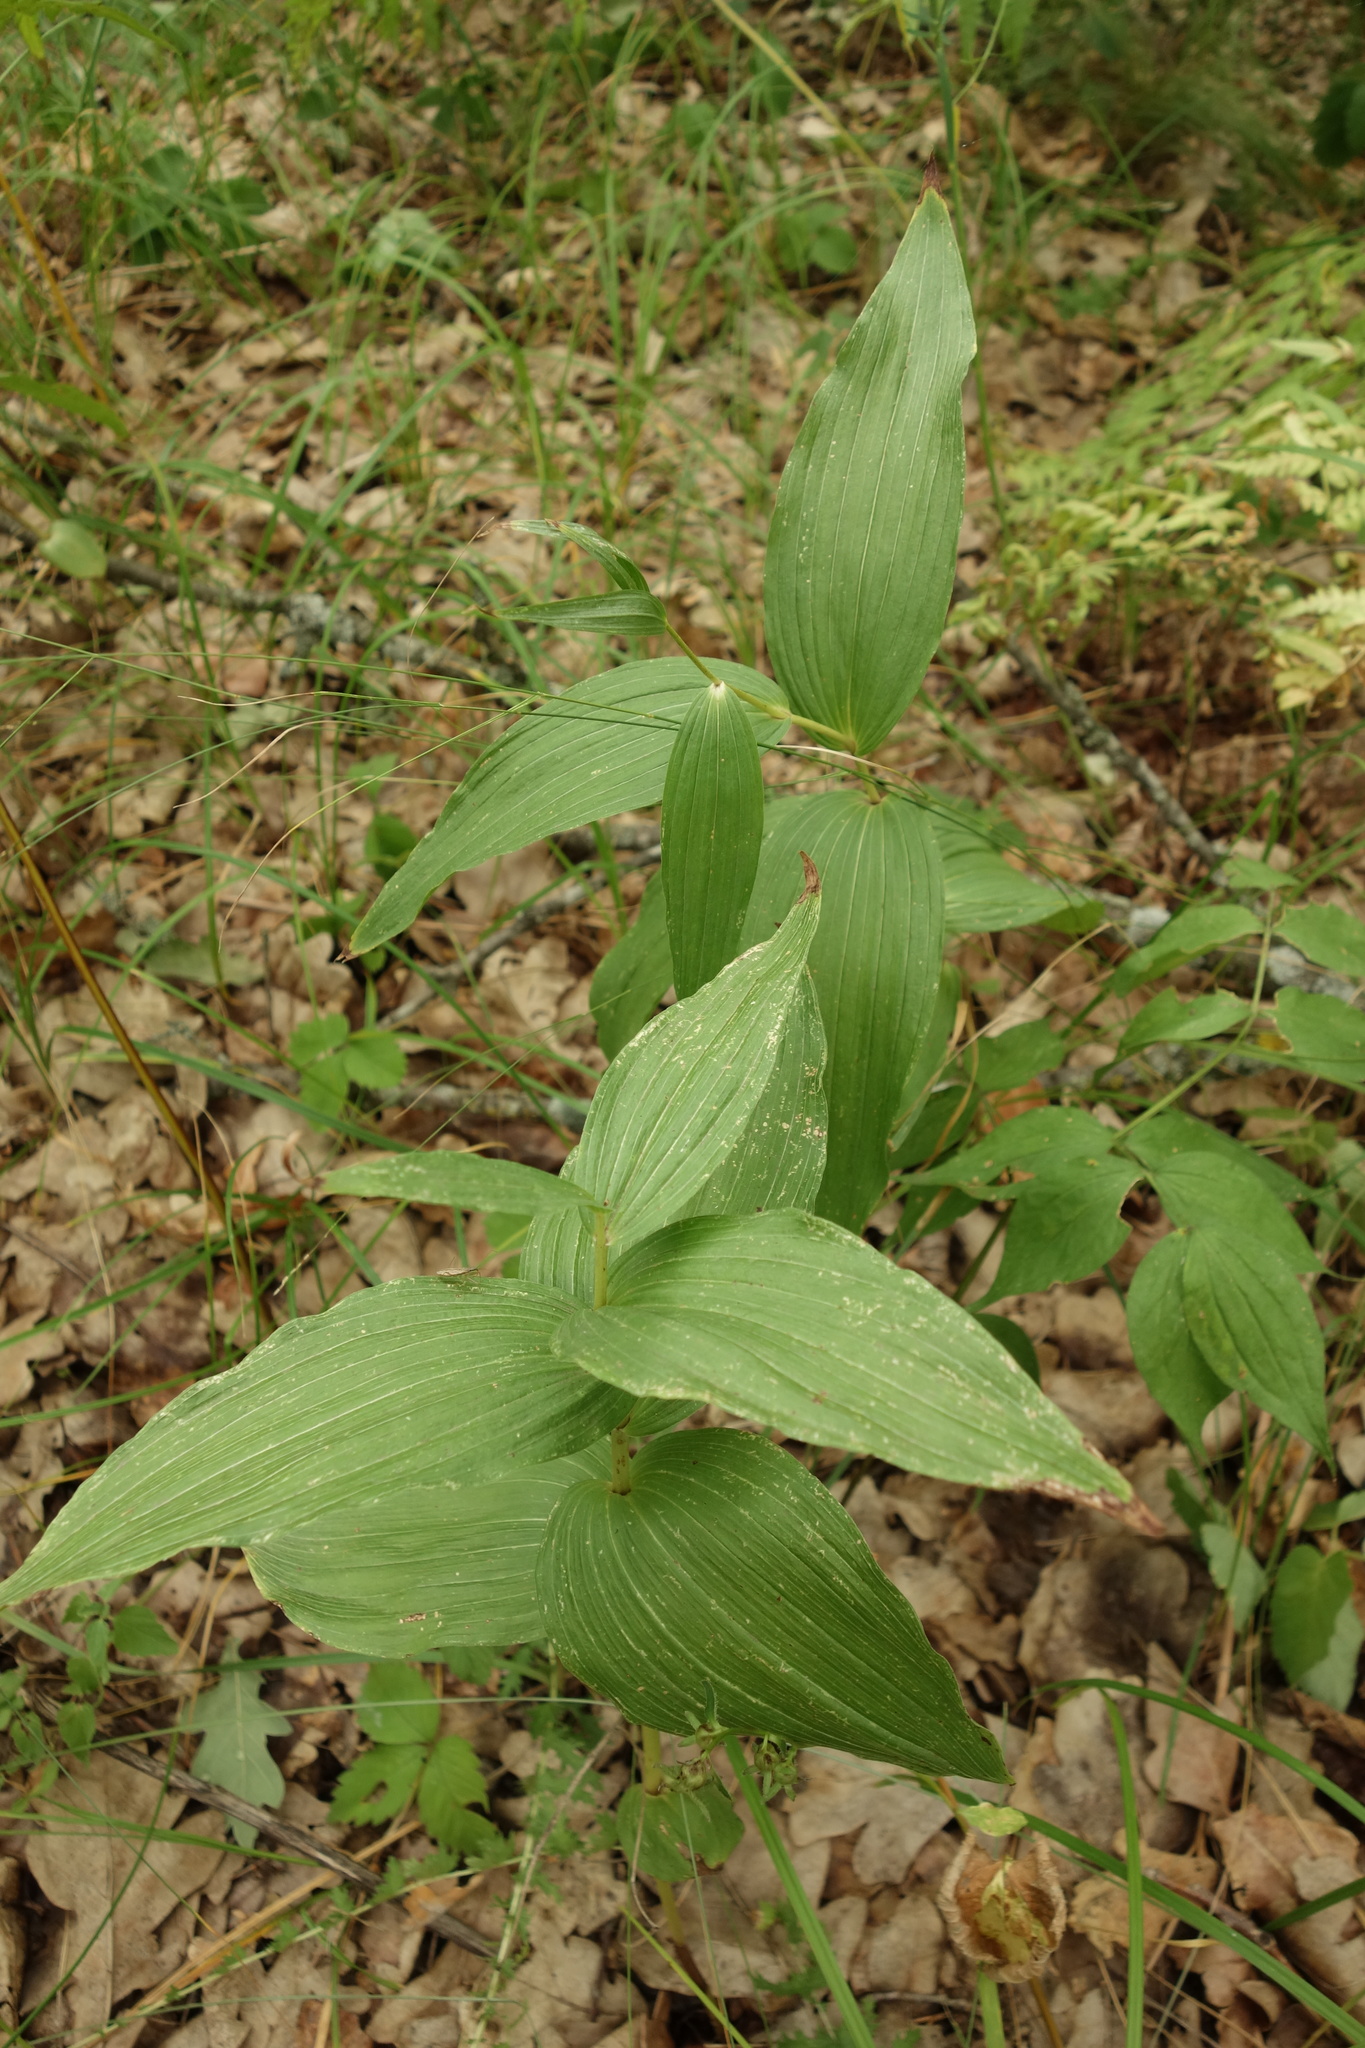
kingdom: Plantae
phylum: Tracheophyta
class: Liliopsida
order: Asparagales
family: Orchidaceae
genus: Epipactis
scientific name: Epipactis helleborine
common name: Broad-leaved helleborine
